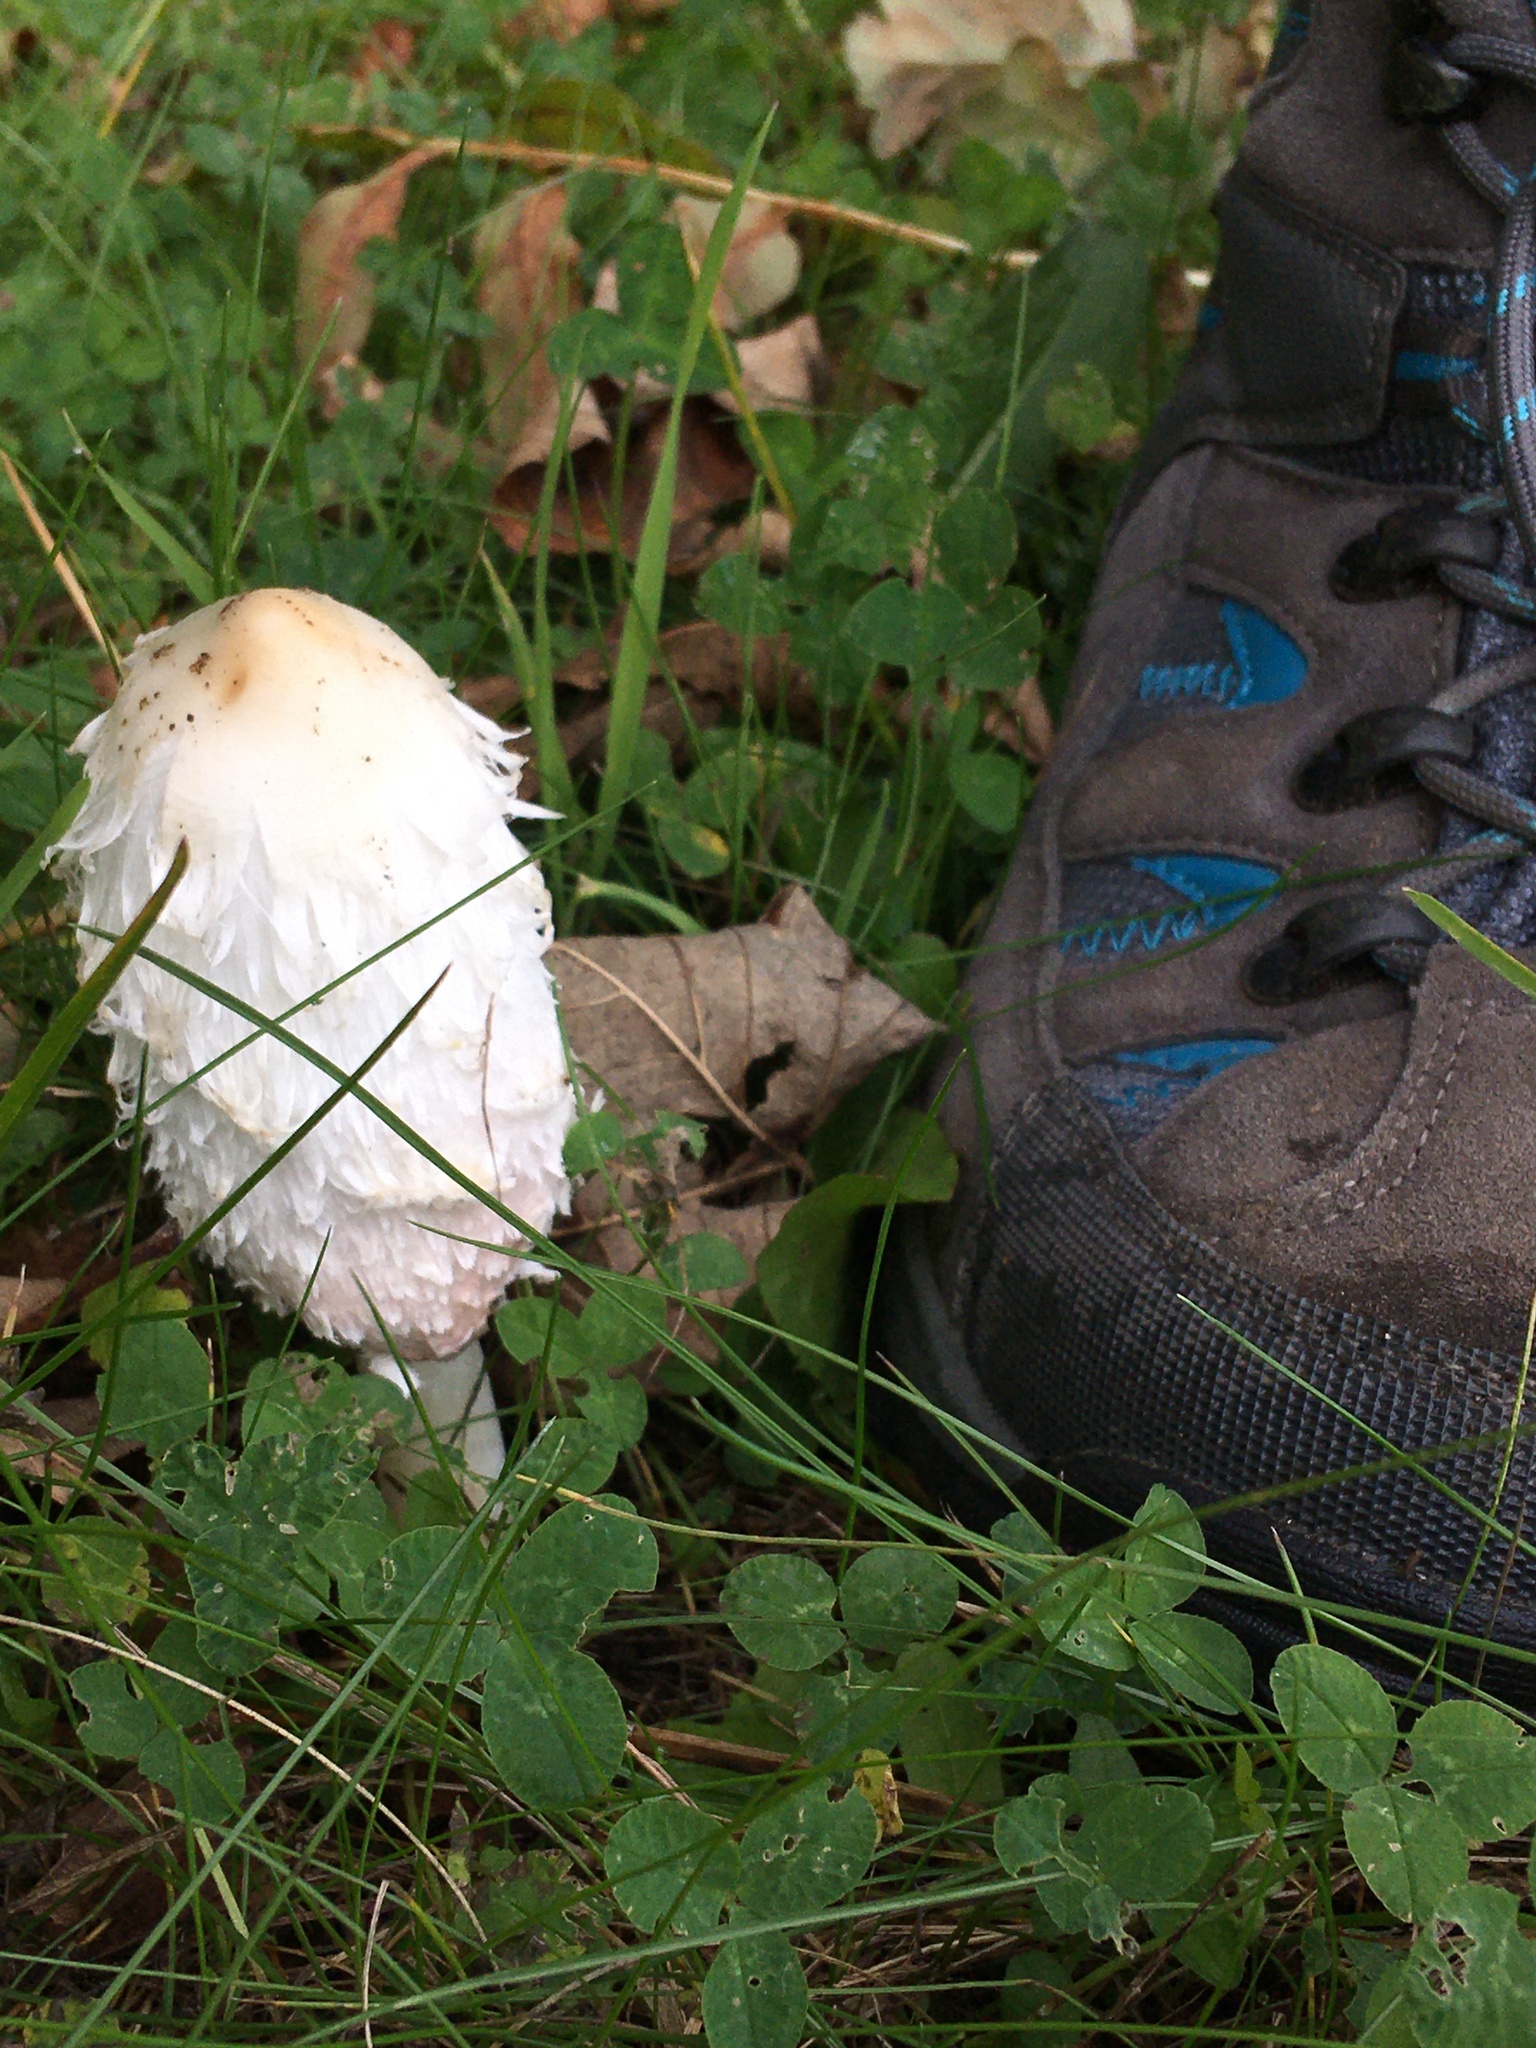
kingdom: Fungi
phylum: Basidiomycota
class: Agaricomycetes
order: Agaricales
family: Agaricaceae
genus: Coprinus
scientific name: Coprinus comatus
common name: Lawyer's wig
